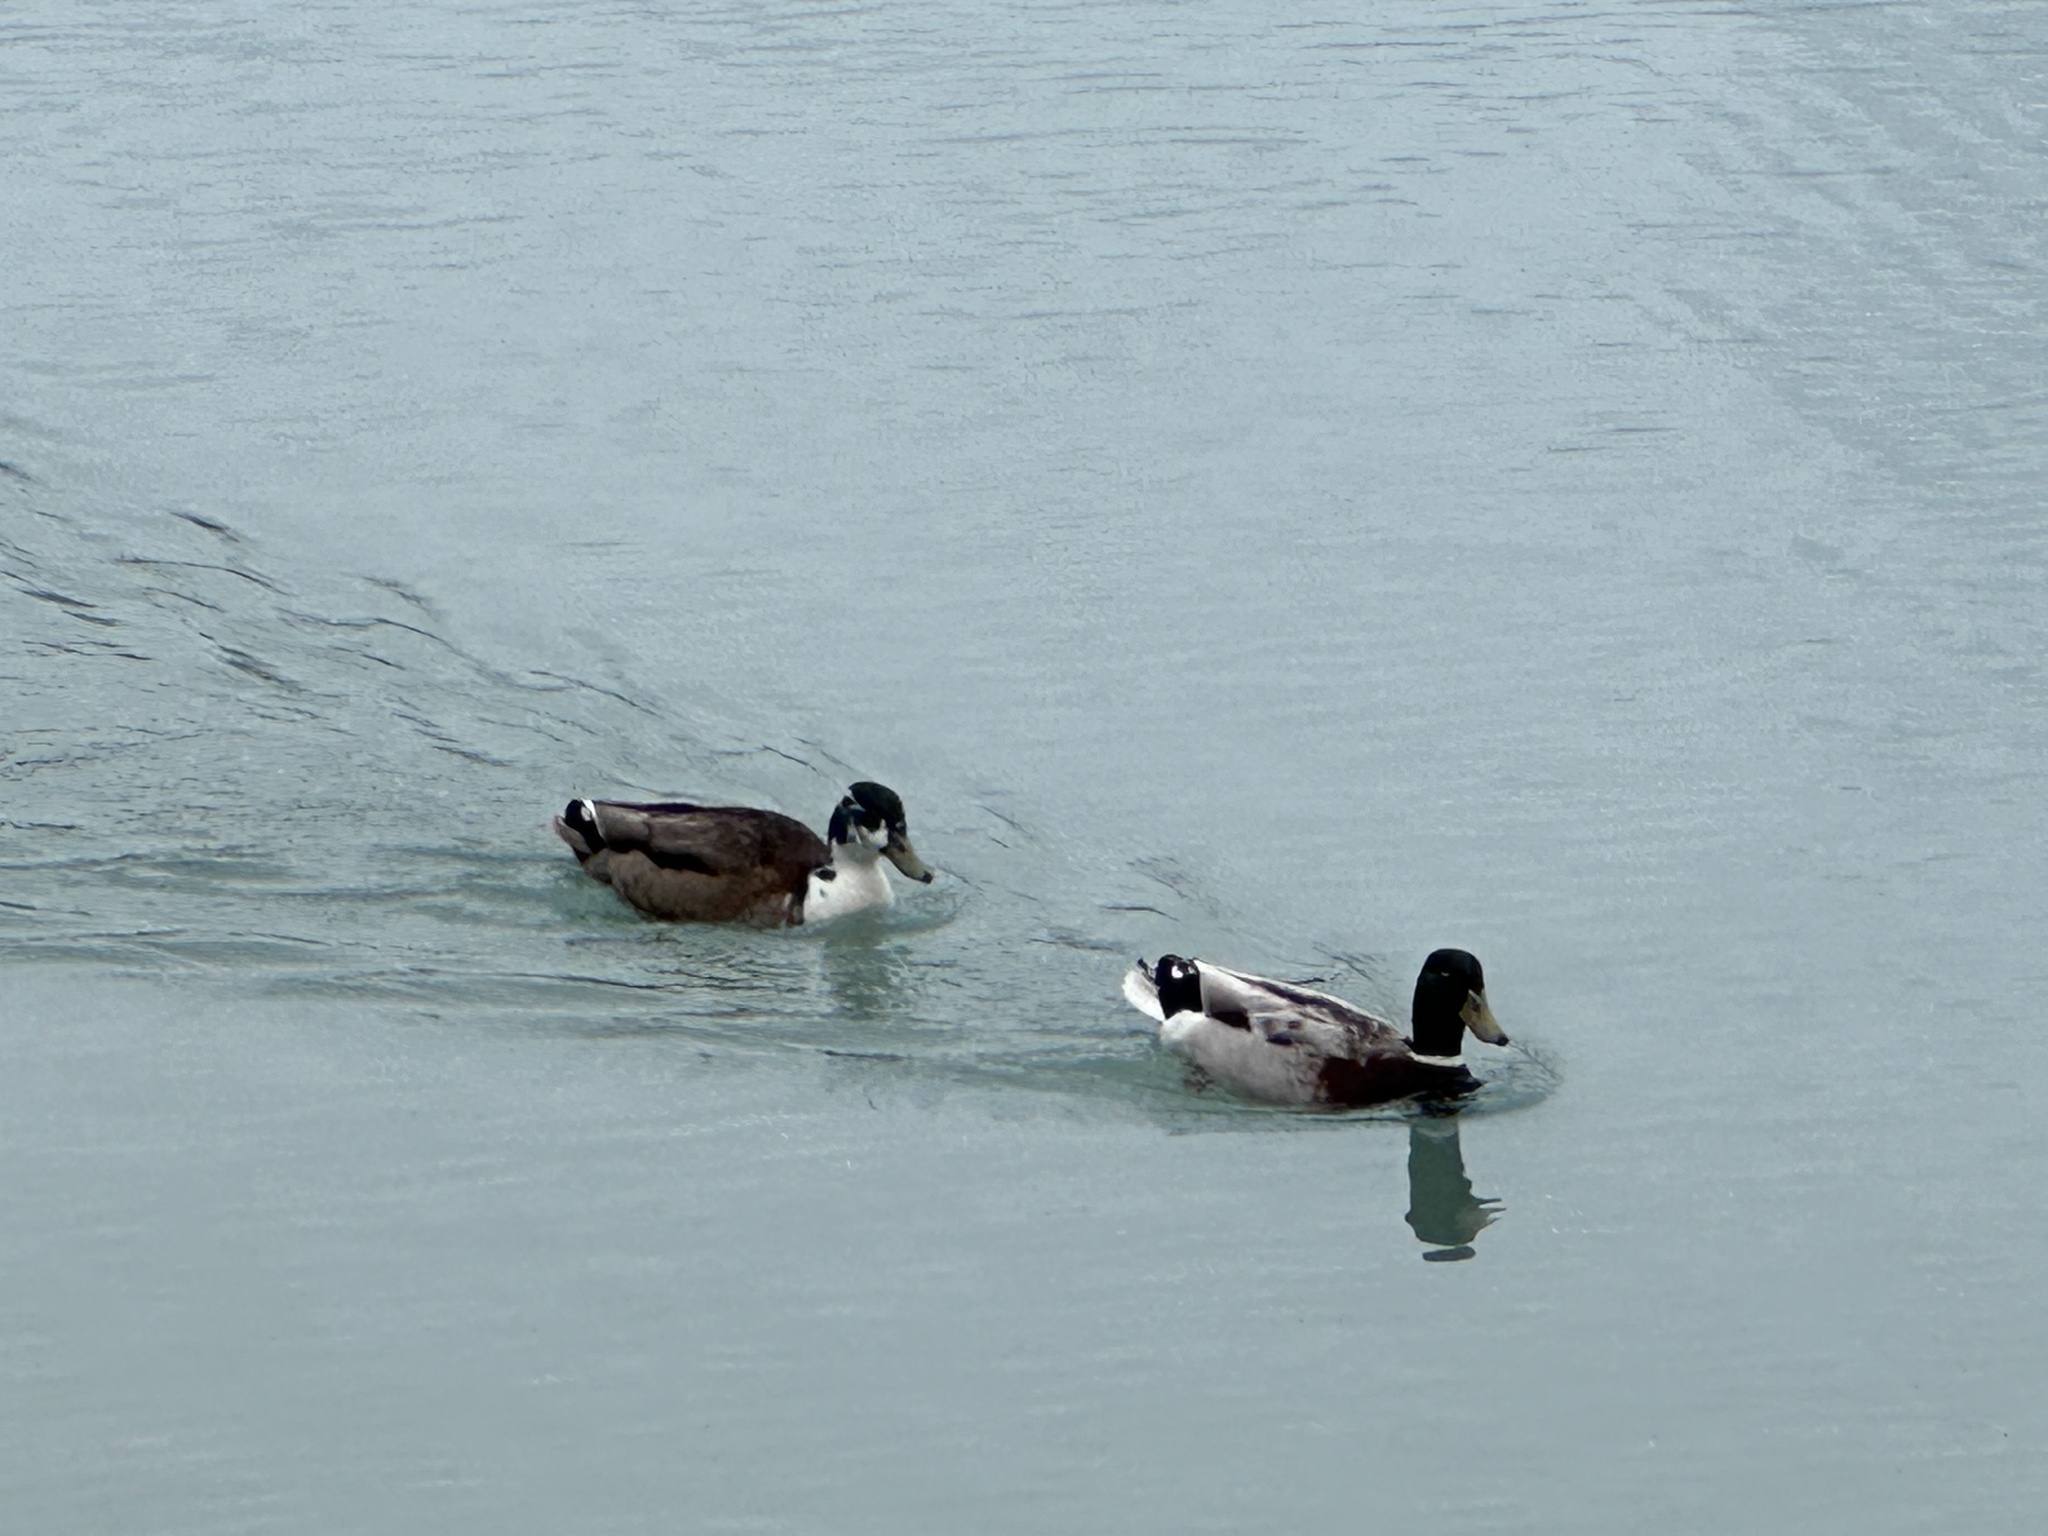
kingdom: Animalia
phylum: Chordata
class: Aves
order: Anseriformes
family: Anatidae
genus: Anas
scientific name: Anas platyrhynchos
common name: Mallard
